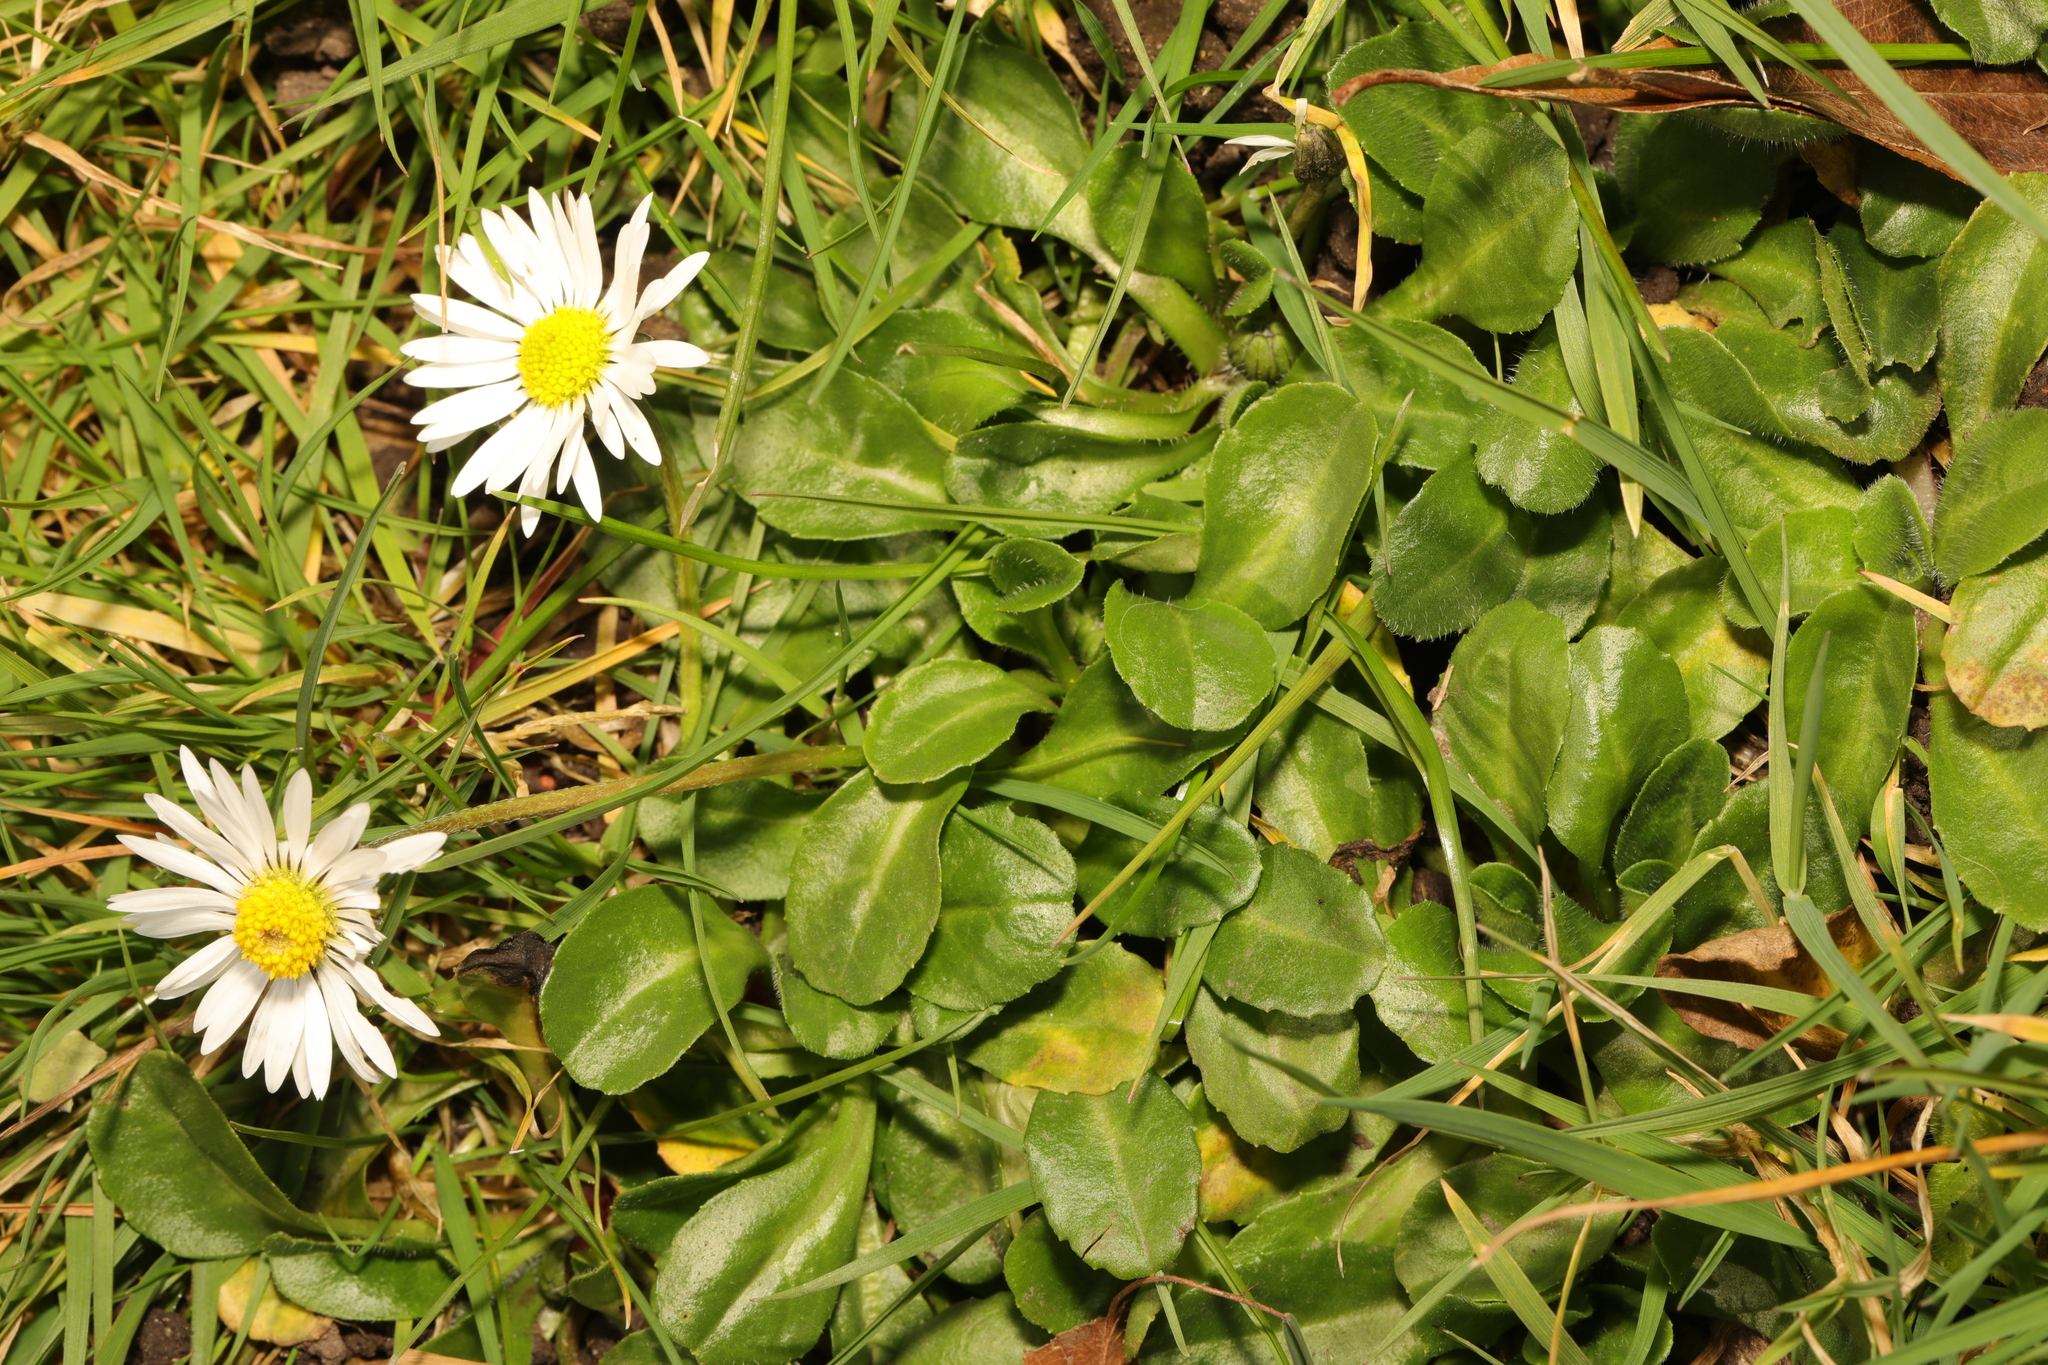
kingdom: Plantae
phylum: Tracheophyta
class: Magnoliopsida
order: Asterales
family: Asteraceae
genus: Bellis
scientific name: Bellis perennis
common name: Lawndaisy
